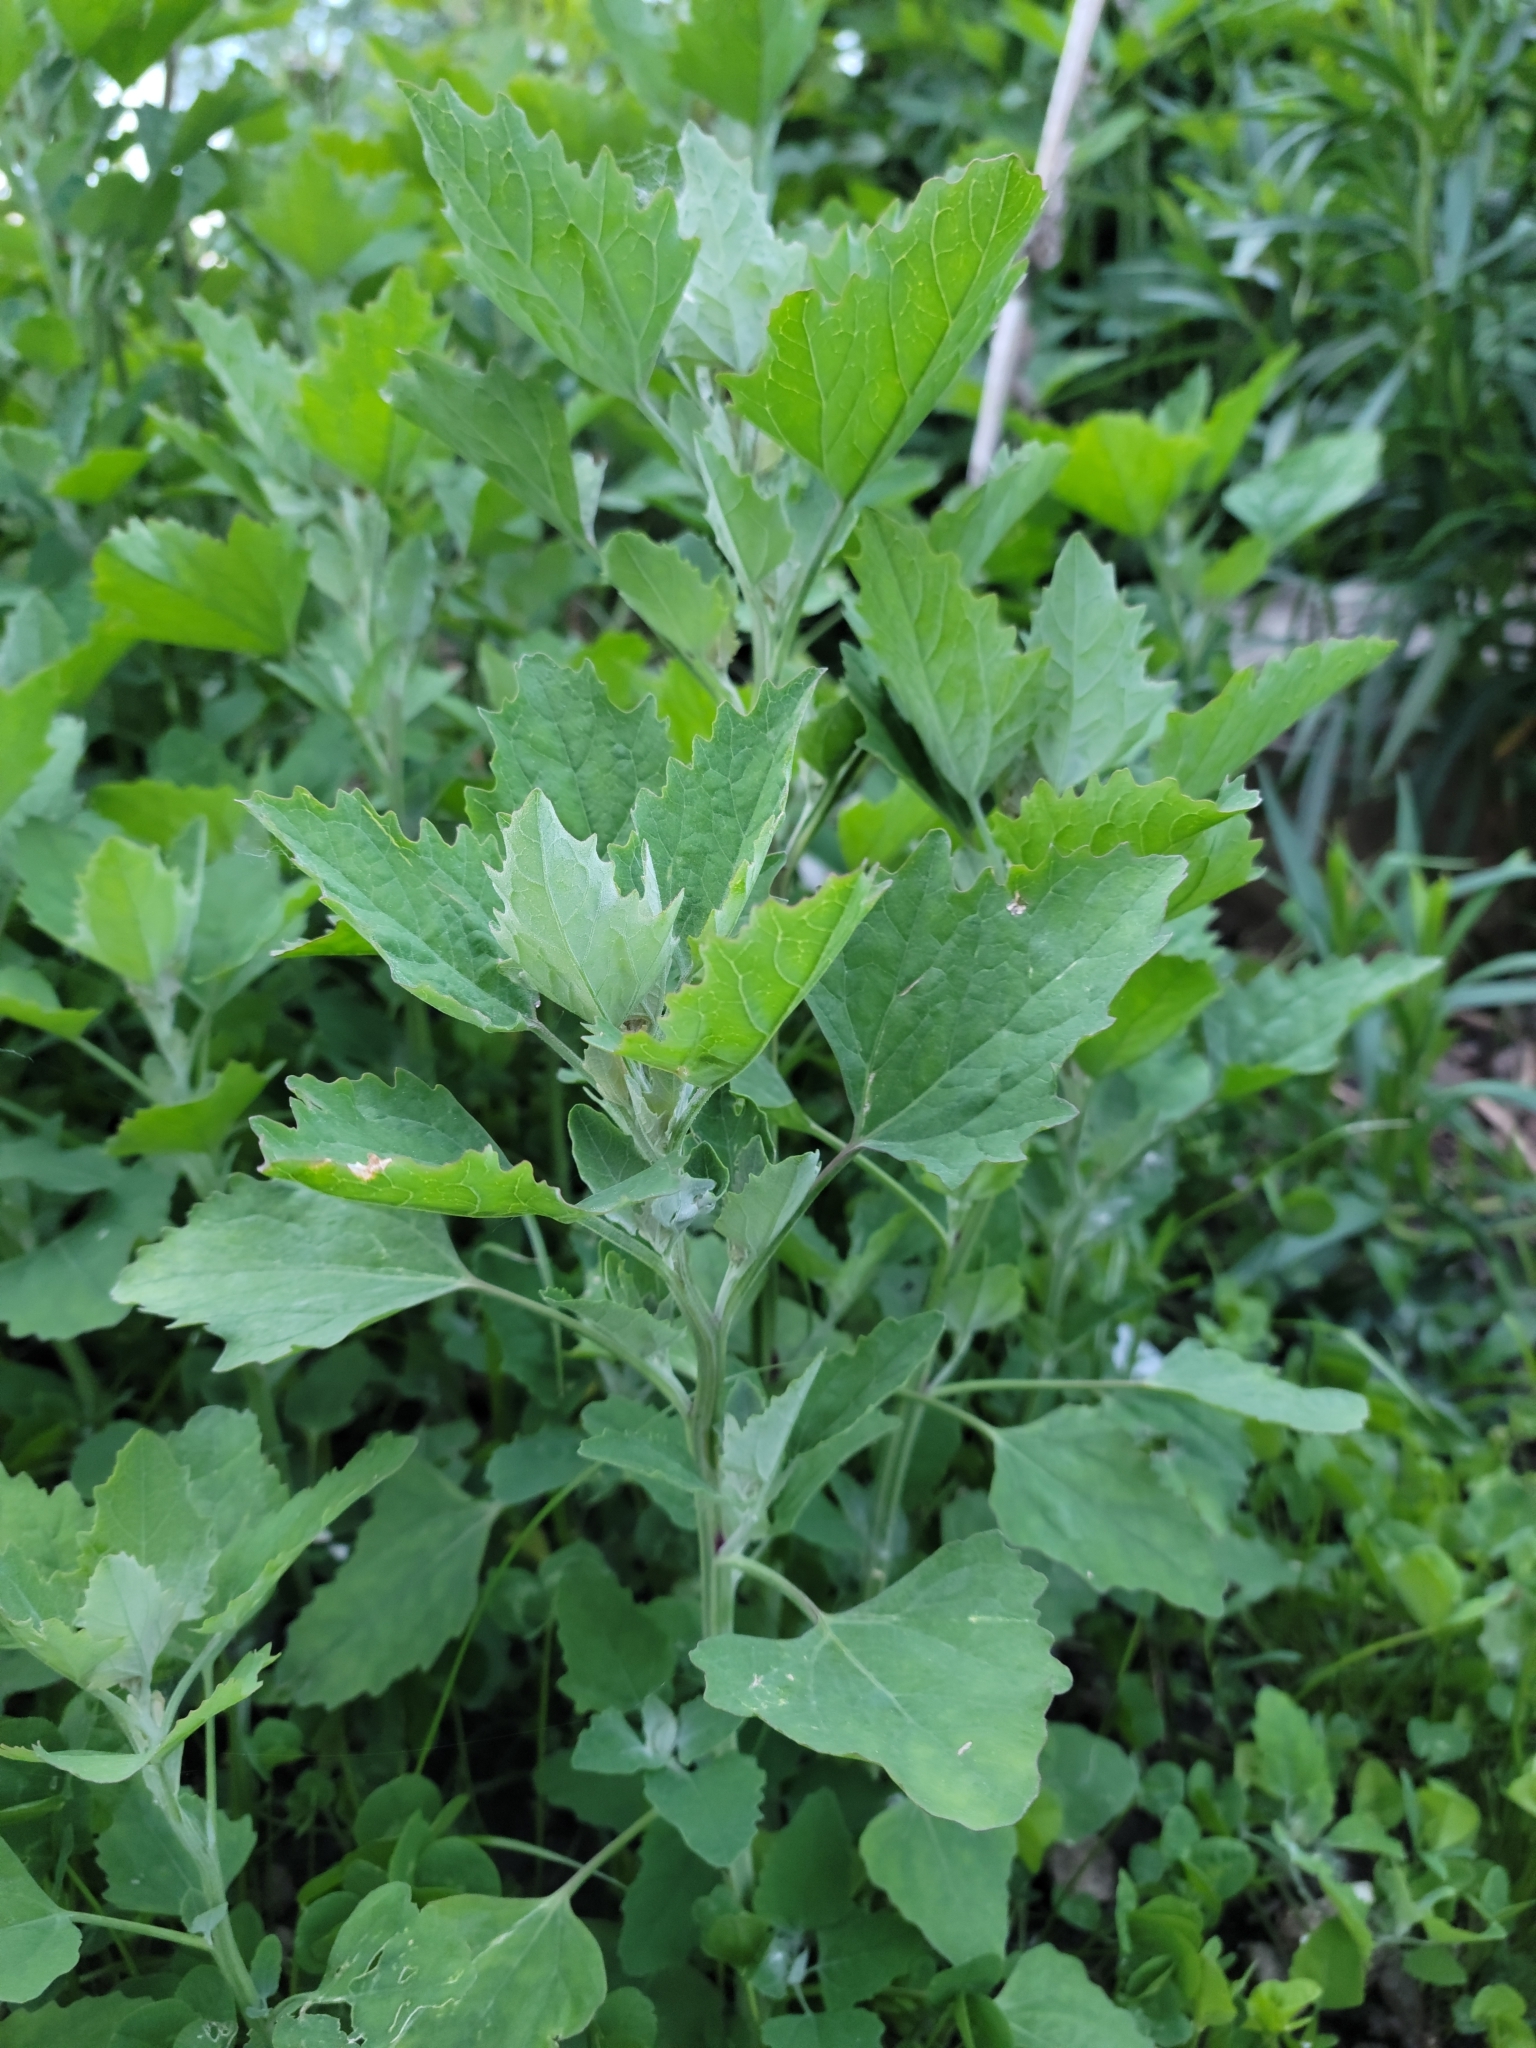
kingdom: Plantae
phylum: Tracheophyta
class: Magnoliopsida
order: Caryophyllales
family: Amaranthaceae
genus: Chenopodium
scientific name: Chenopodium album
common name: Fat-hen
